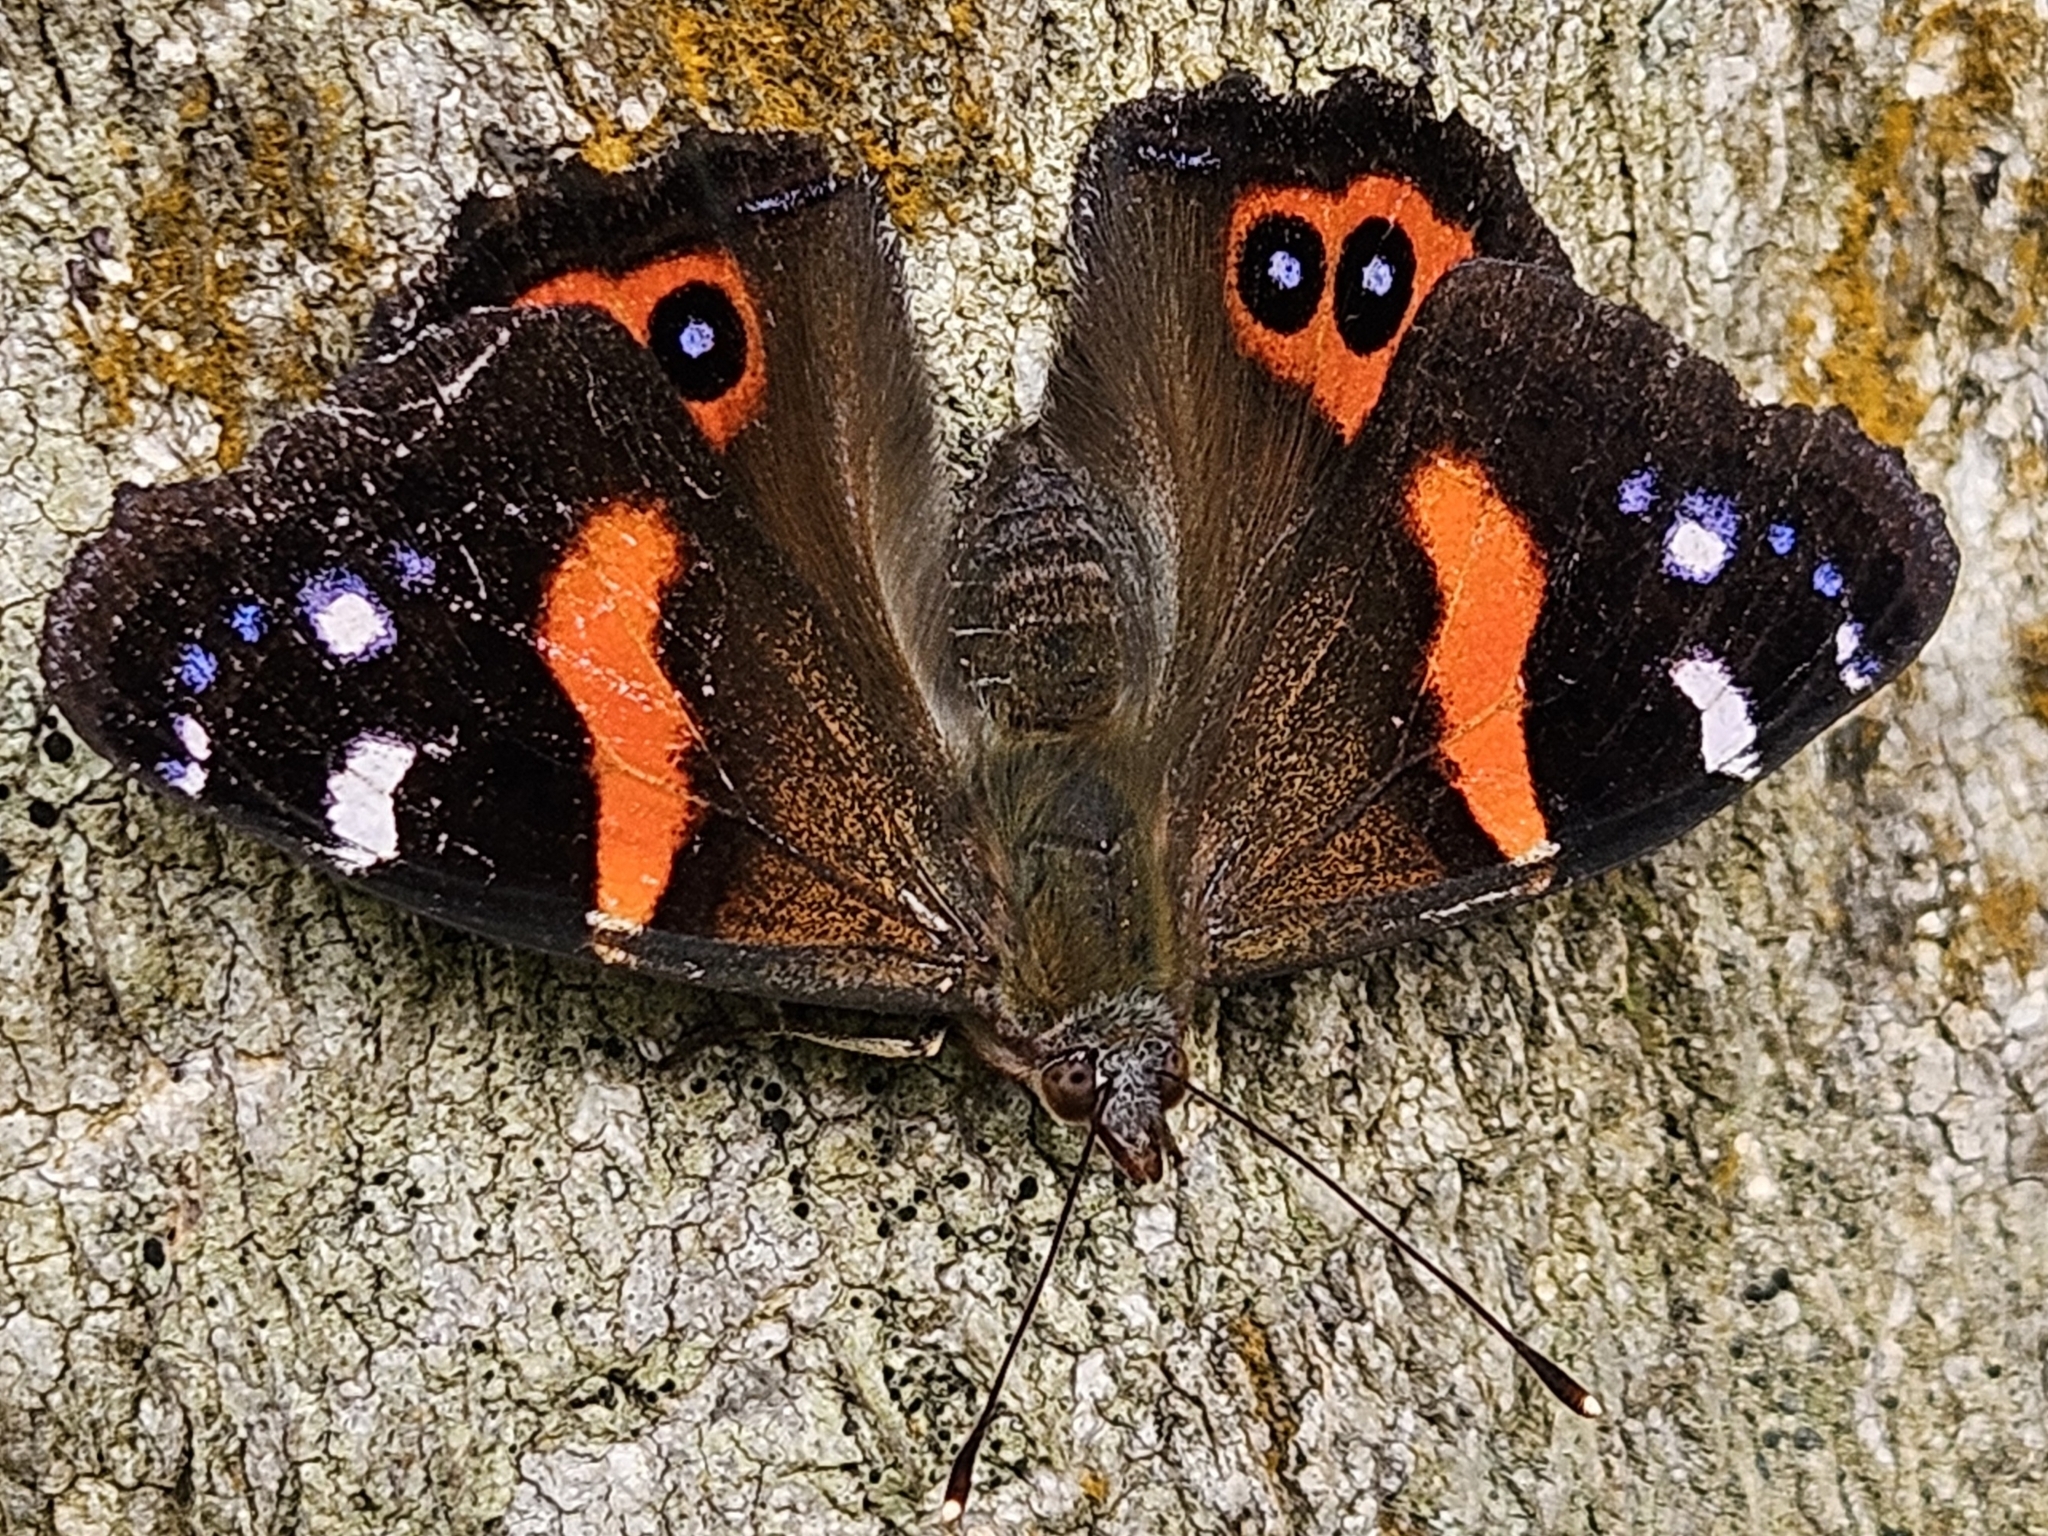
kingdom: Animalia
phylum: Arthropoda
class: Insecta
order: Lepidoptera
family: Nymphalidae
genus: Vanessa
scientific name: Vanessa gonerilla
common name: New zealand red admiral
